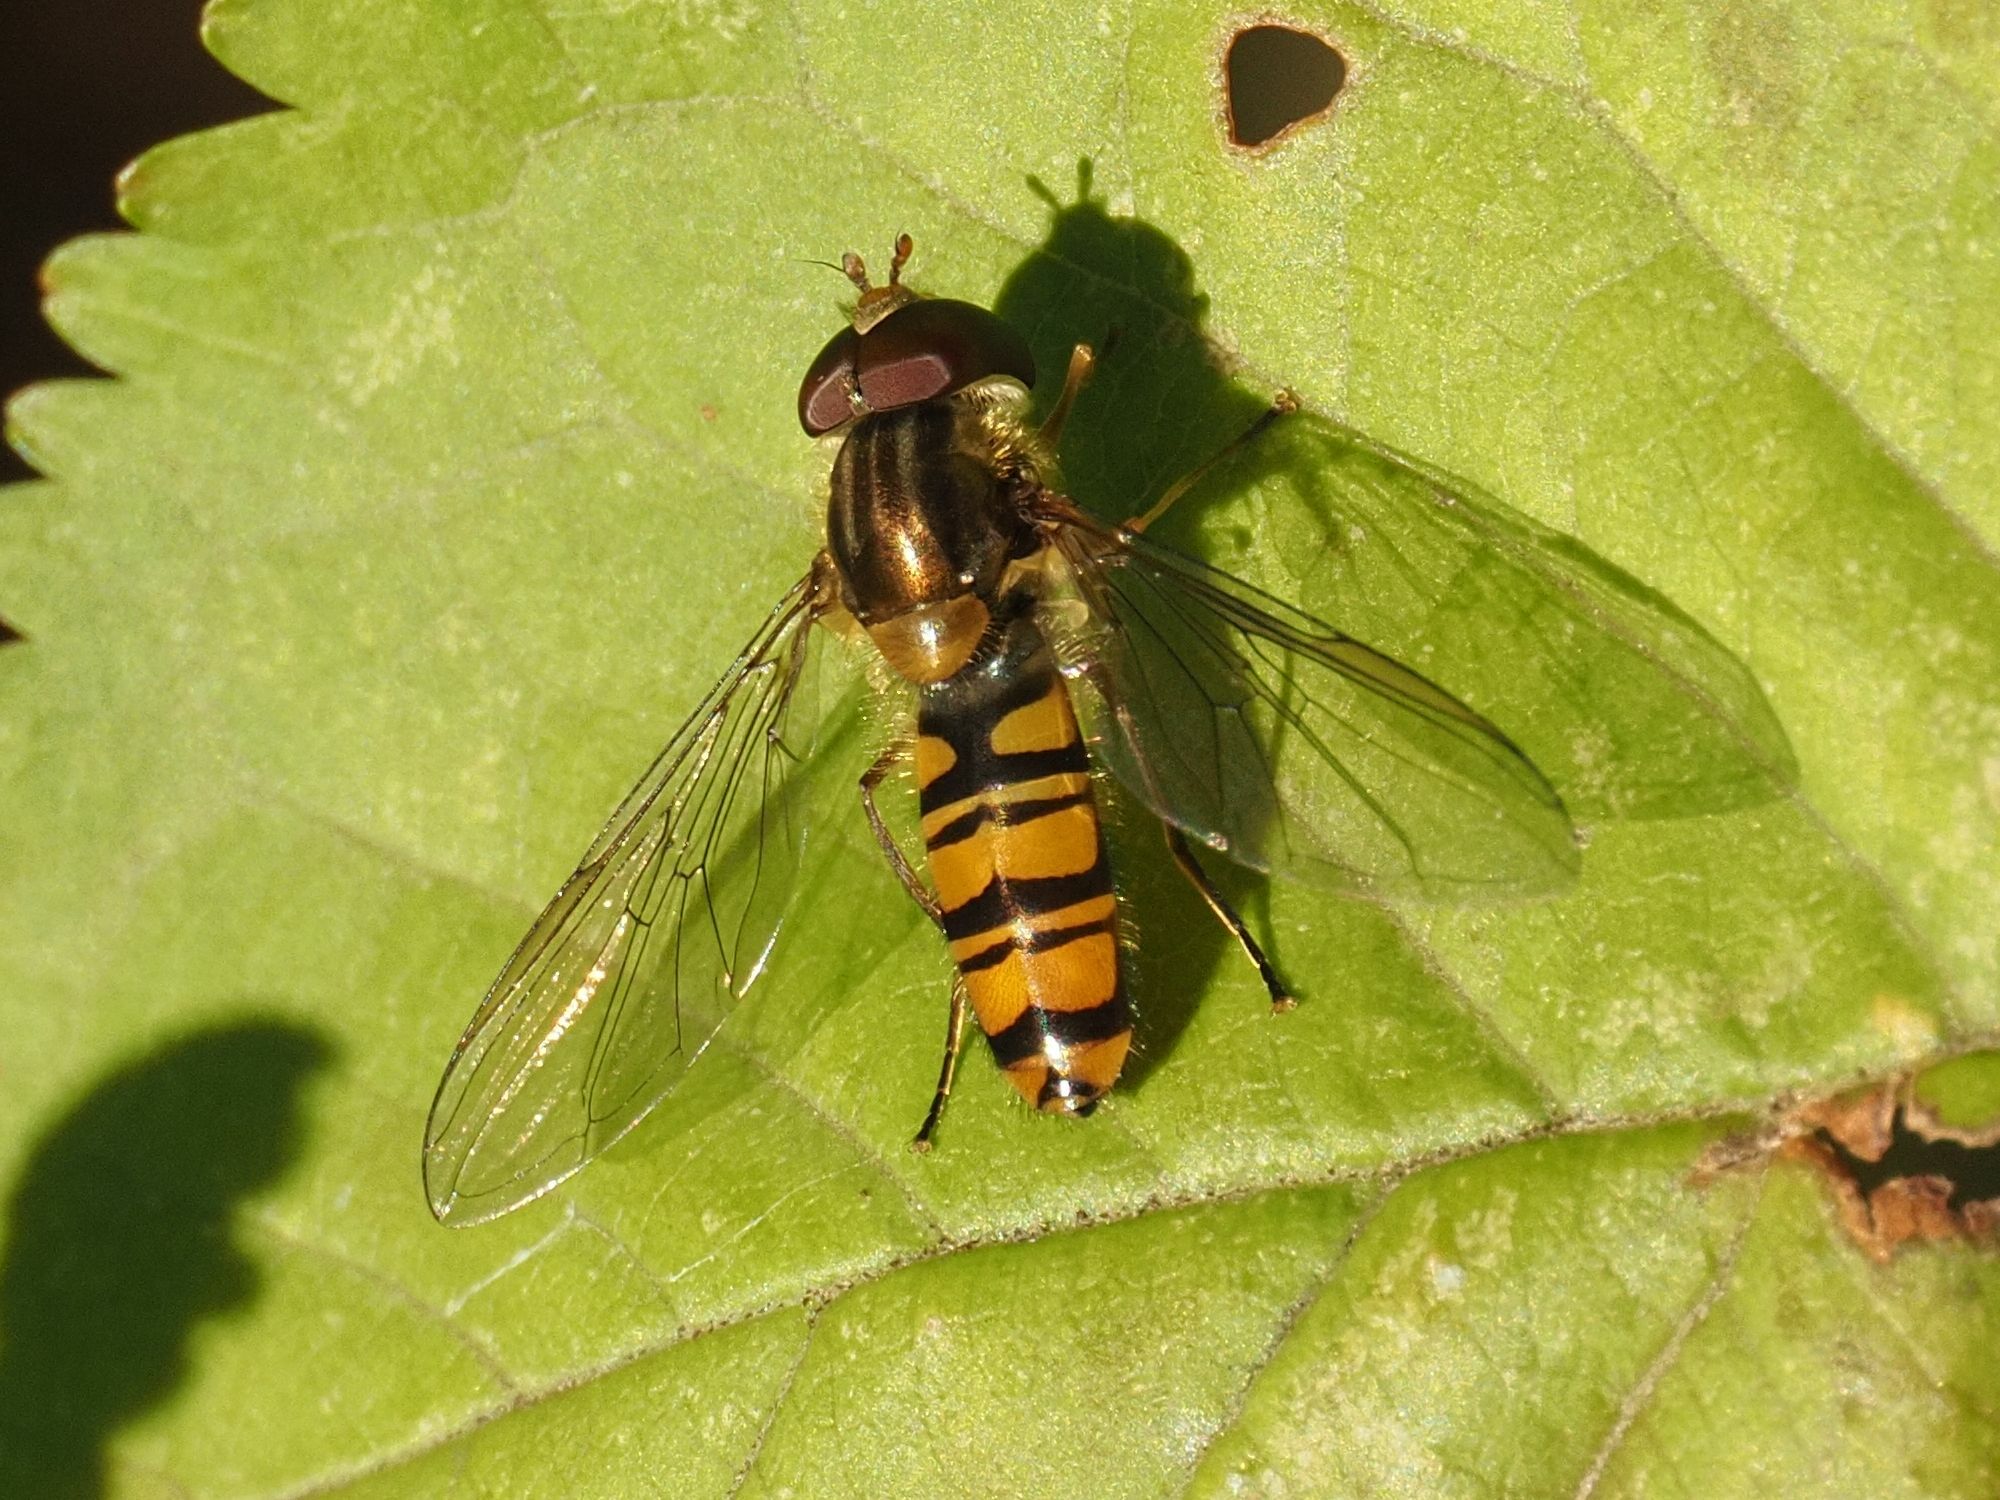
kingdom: Animalia
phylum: Arthropoda
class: Insecta
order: Diptera
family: Syrphidae
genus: Episyrphus
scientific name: Episyrphus balteatus
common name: Marmalade hoverfly
